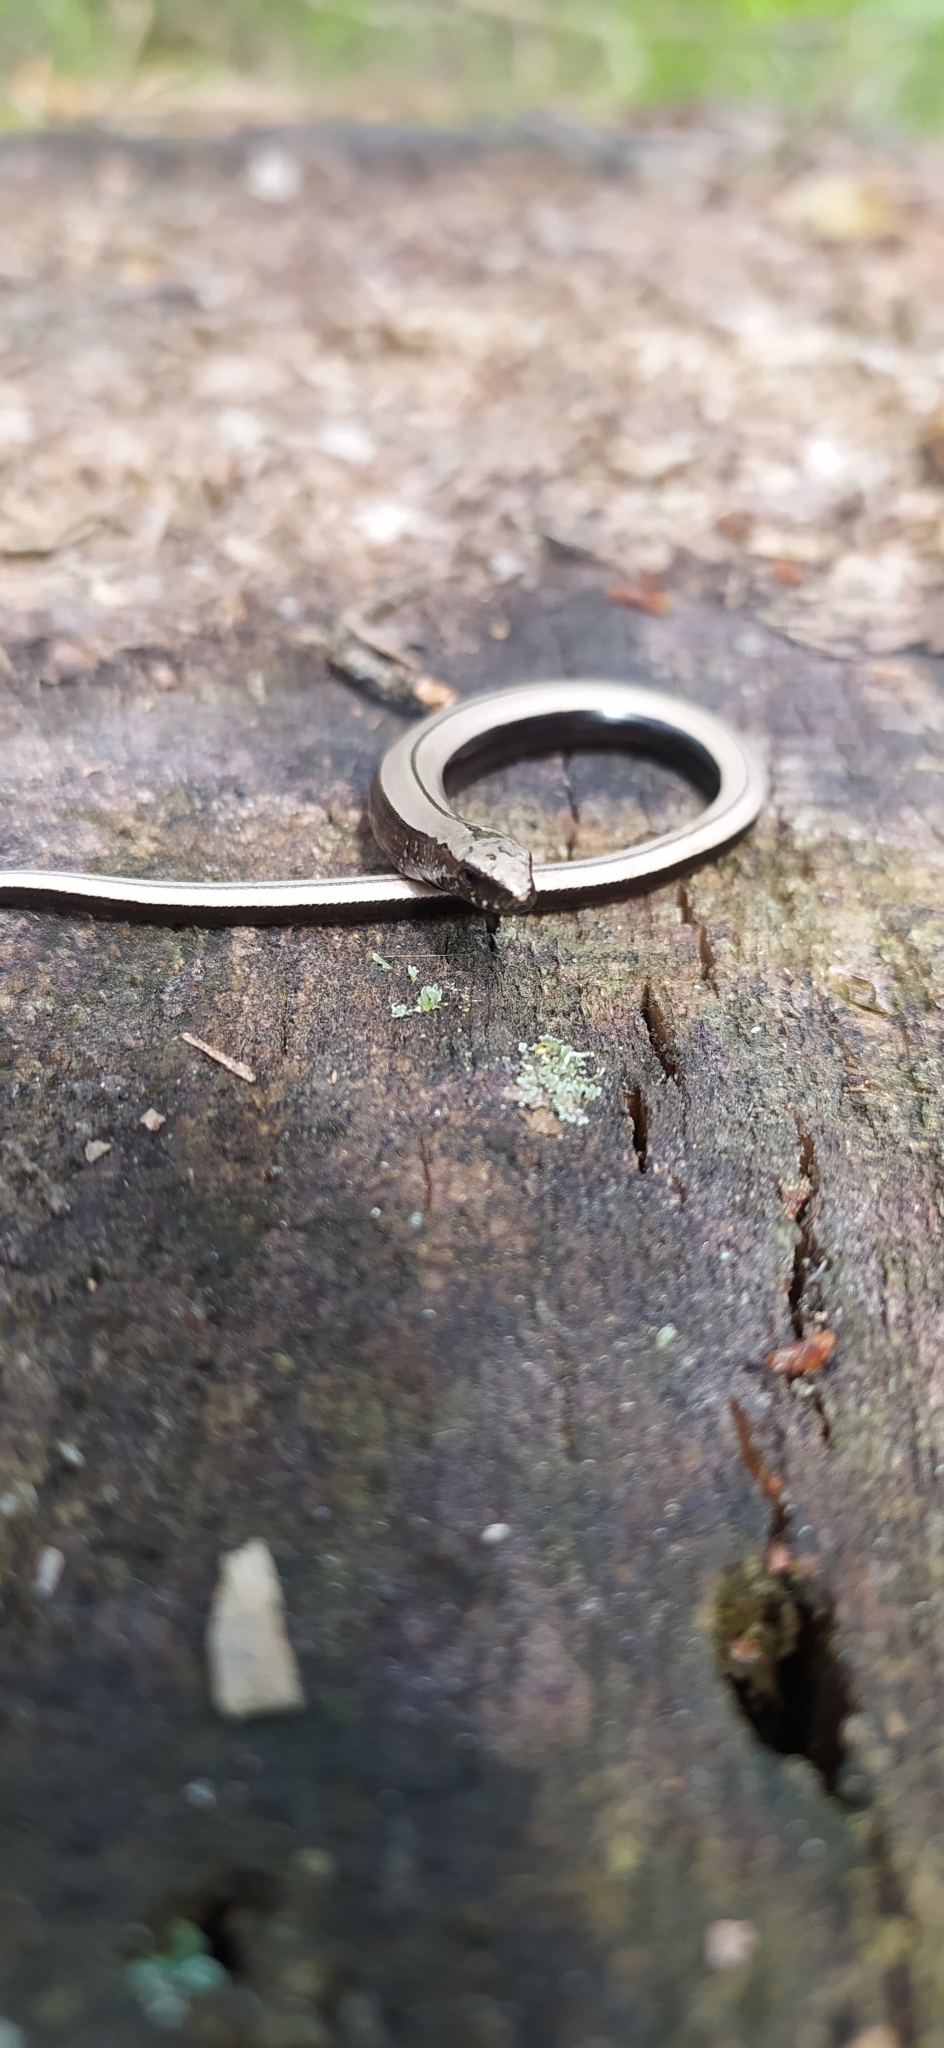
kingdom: Animalia
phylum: Chordata
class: Squamata
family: Anguidae
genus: Anguis
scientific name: Anguis colchica
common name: Slow worm
